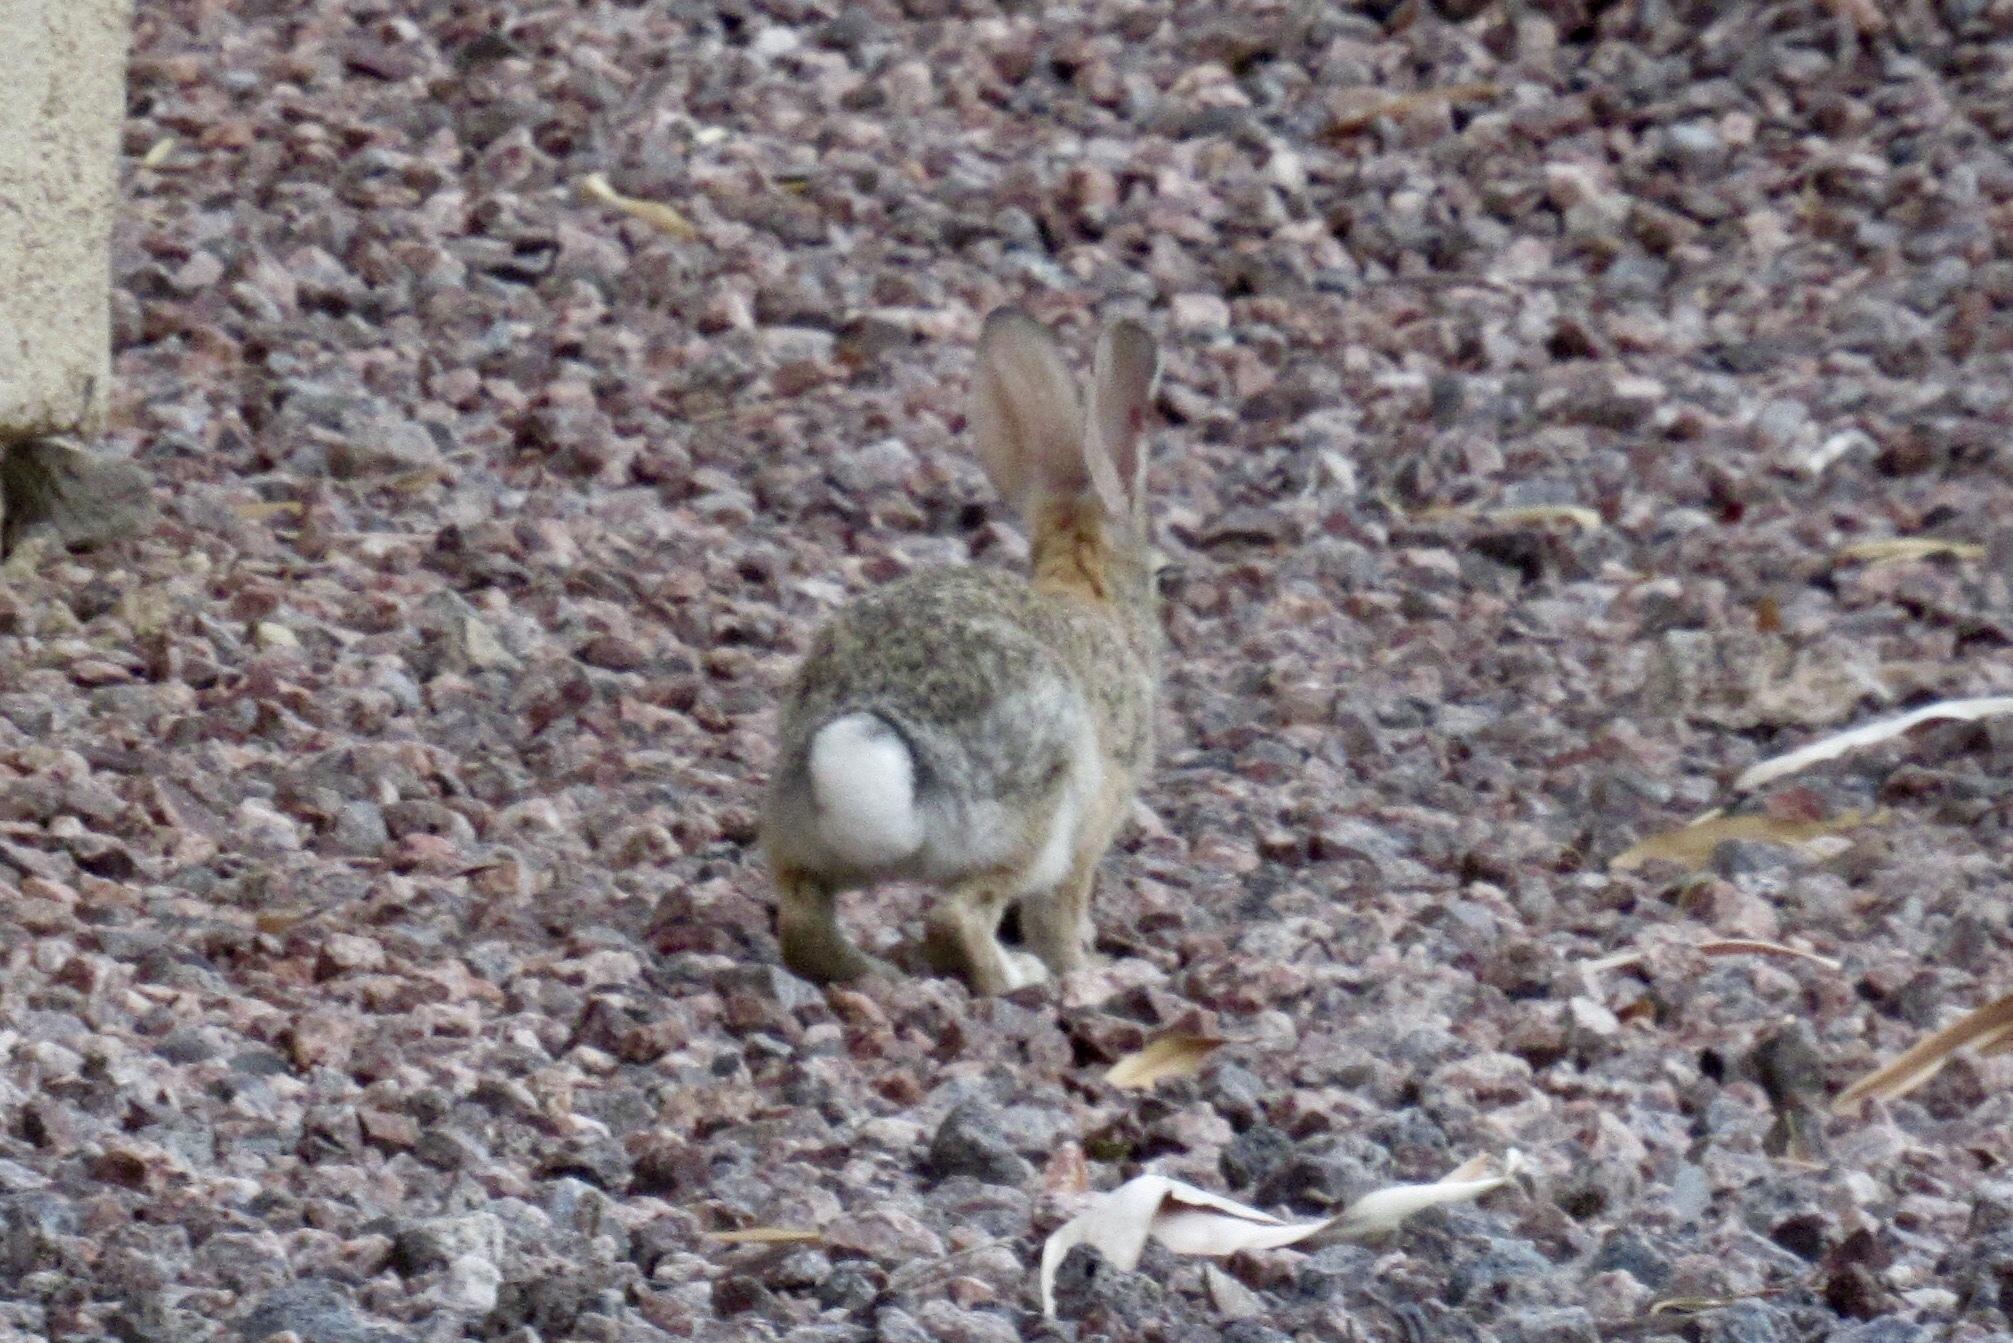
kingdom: Animalia
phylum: Chordata
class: Mammalia
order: Lagomorpha
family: Leporidae
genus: Sylvilagus
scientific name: Sylvilagus audubonii
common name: Desert cottontail
